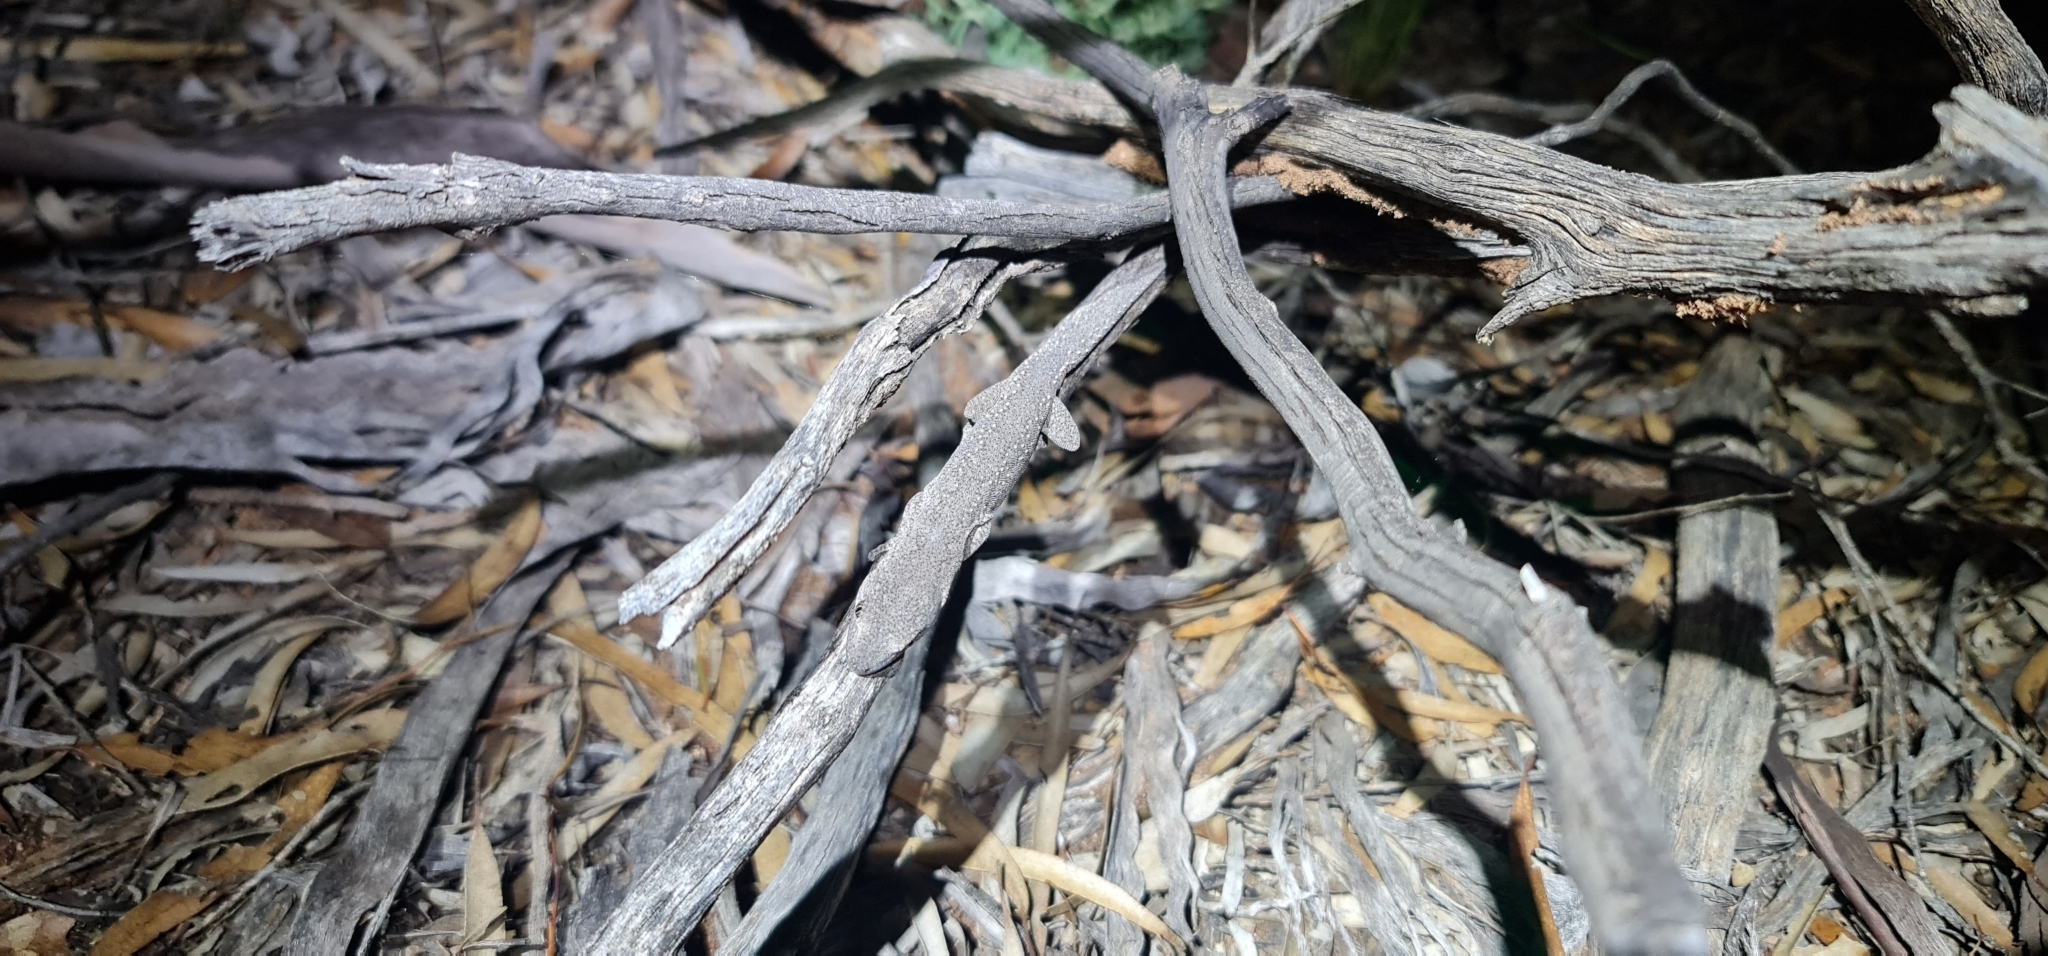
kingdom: Animalia
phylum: Chordata
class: Squamata
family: Diplodactylidae
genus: Strophurus
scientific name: Strophurus williamsi
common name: Eastern spiny-tailed gecko
